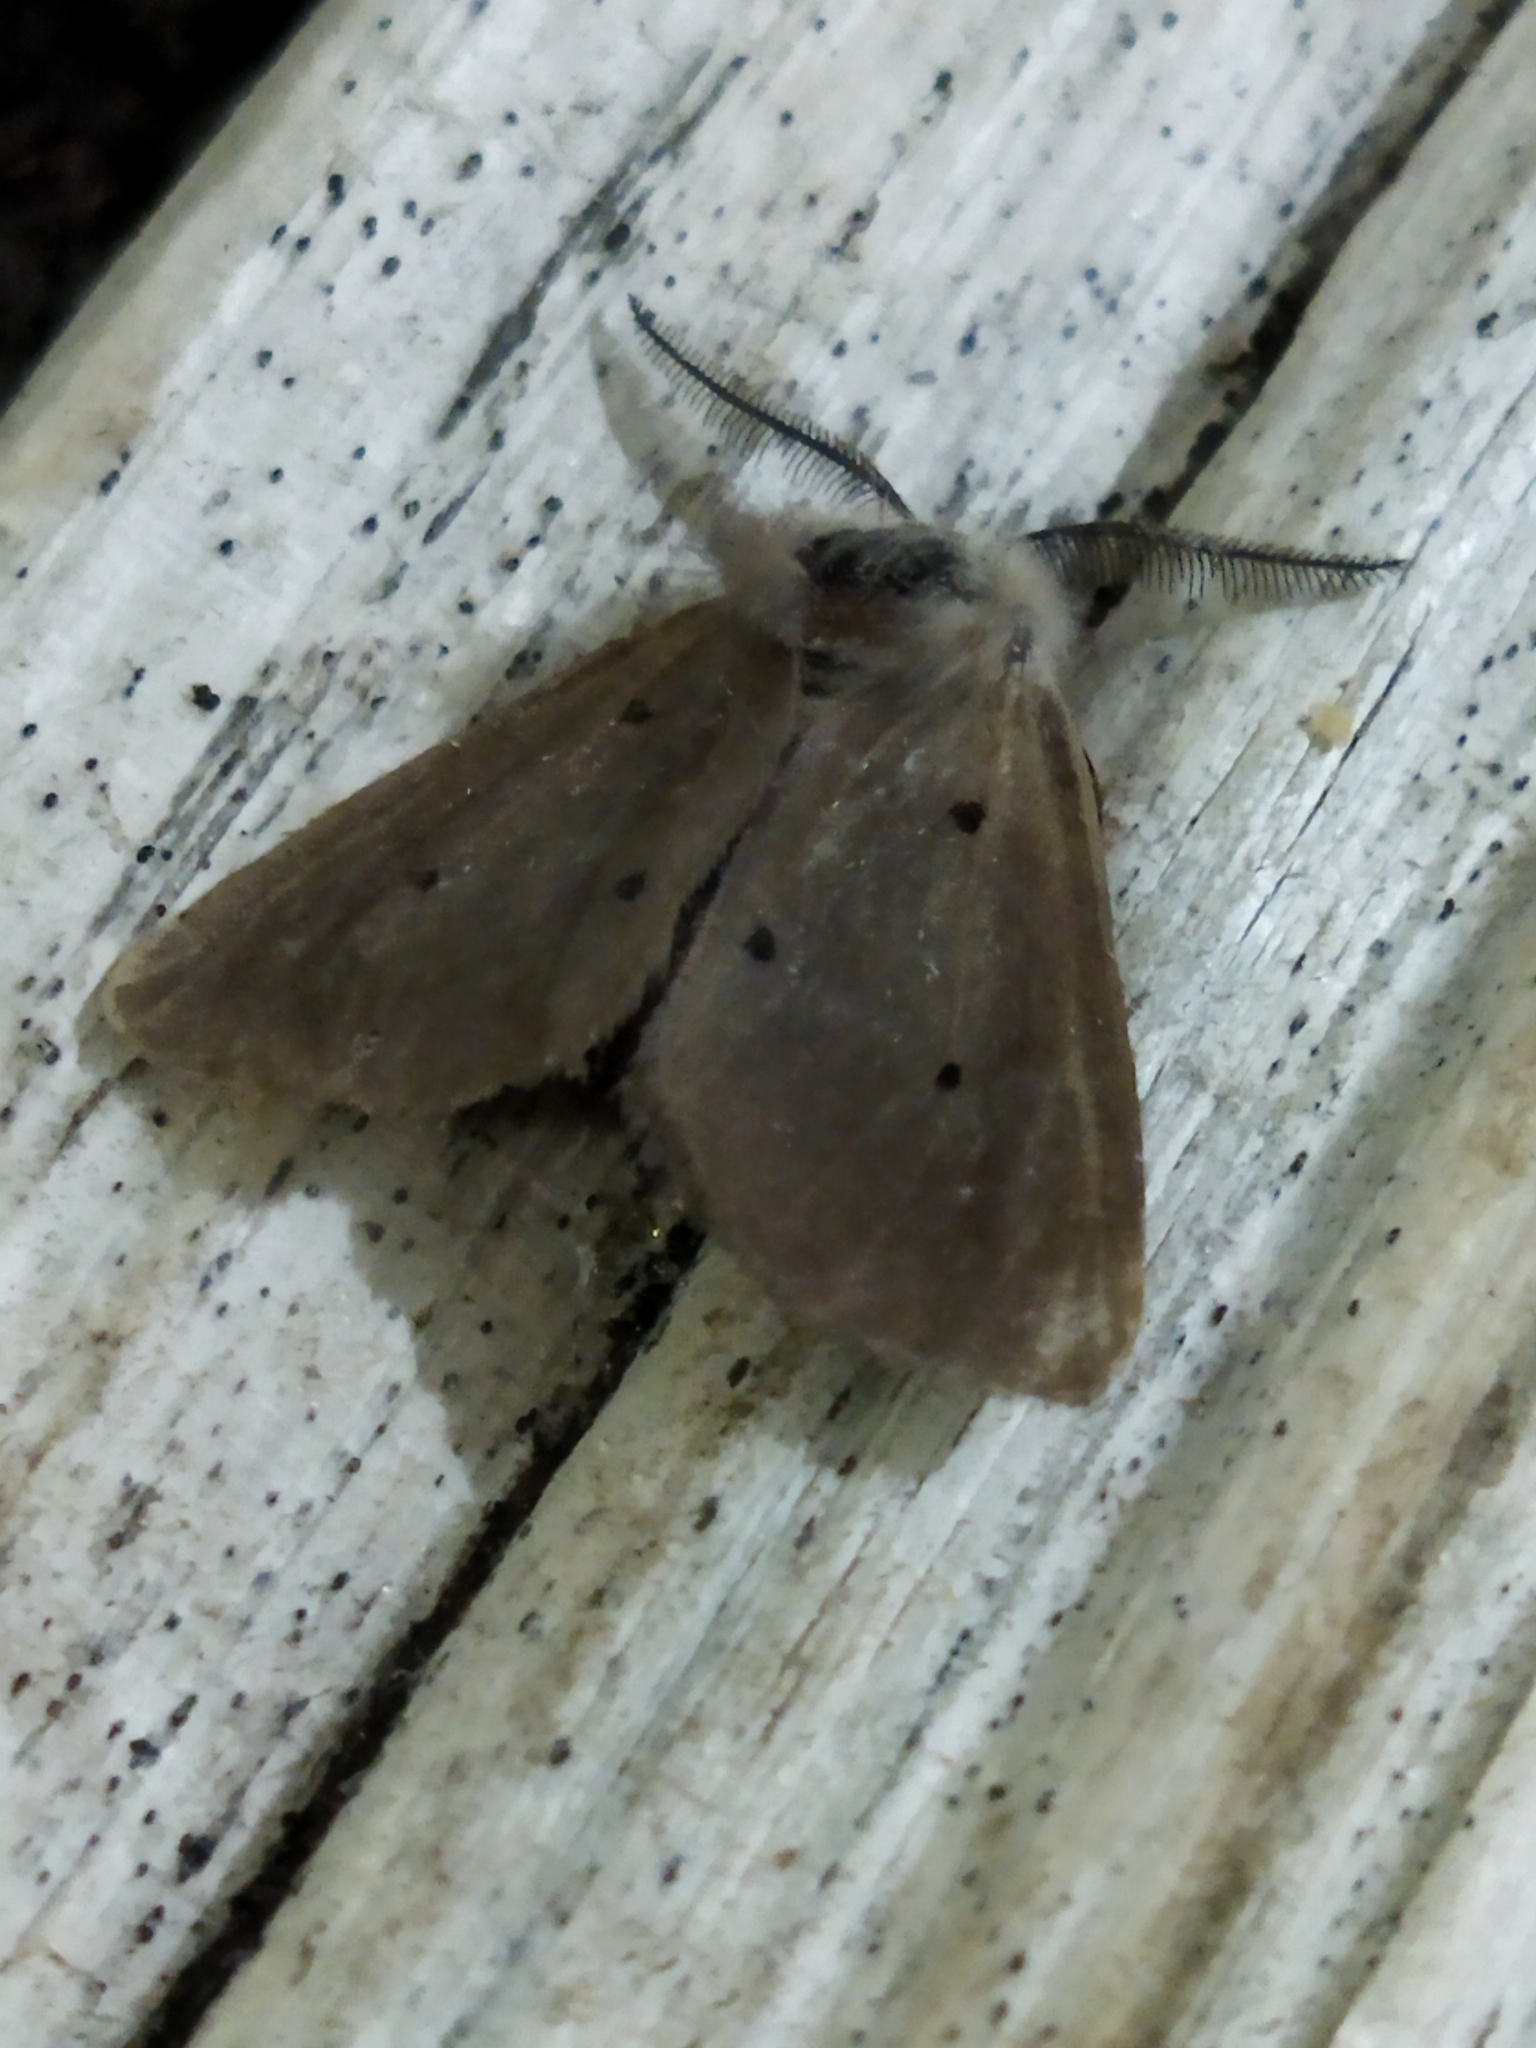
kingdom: Animalia
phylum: Arthropoda
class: Insecta
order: Lepidoptera
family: Erebidae
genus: Diaphora
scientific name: Diaphora mendica
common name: Muslin moth
